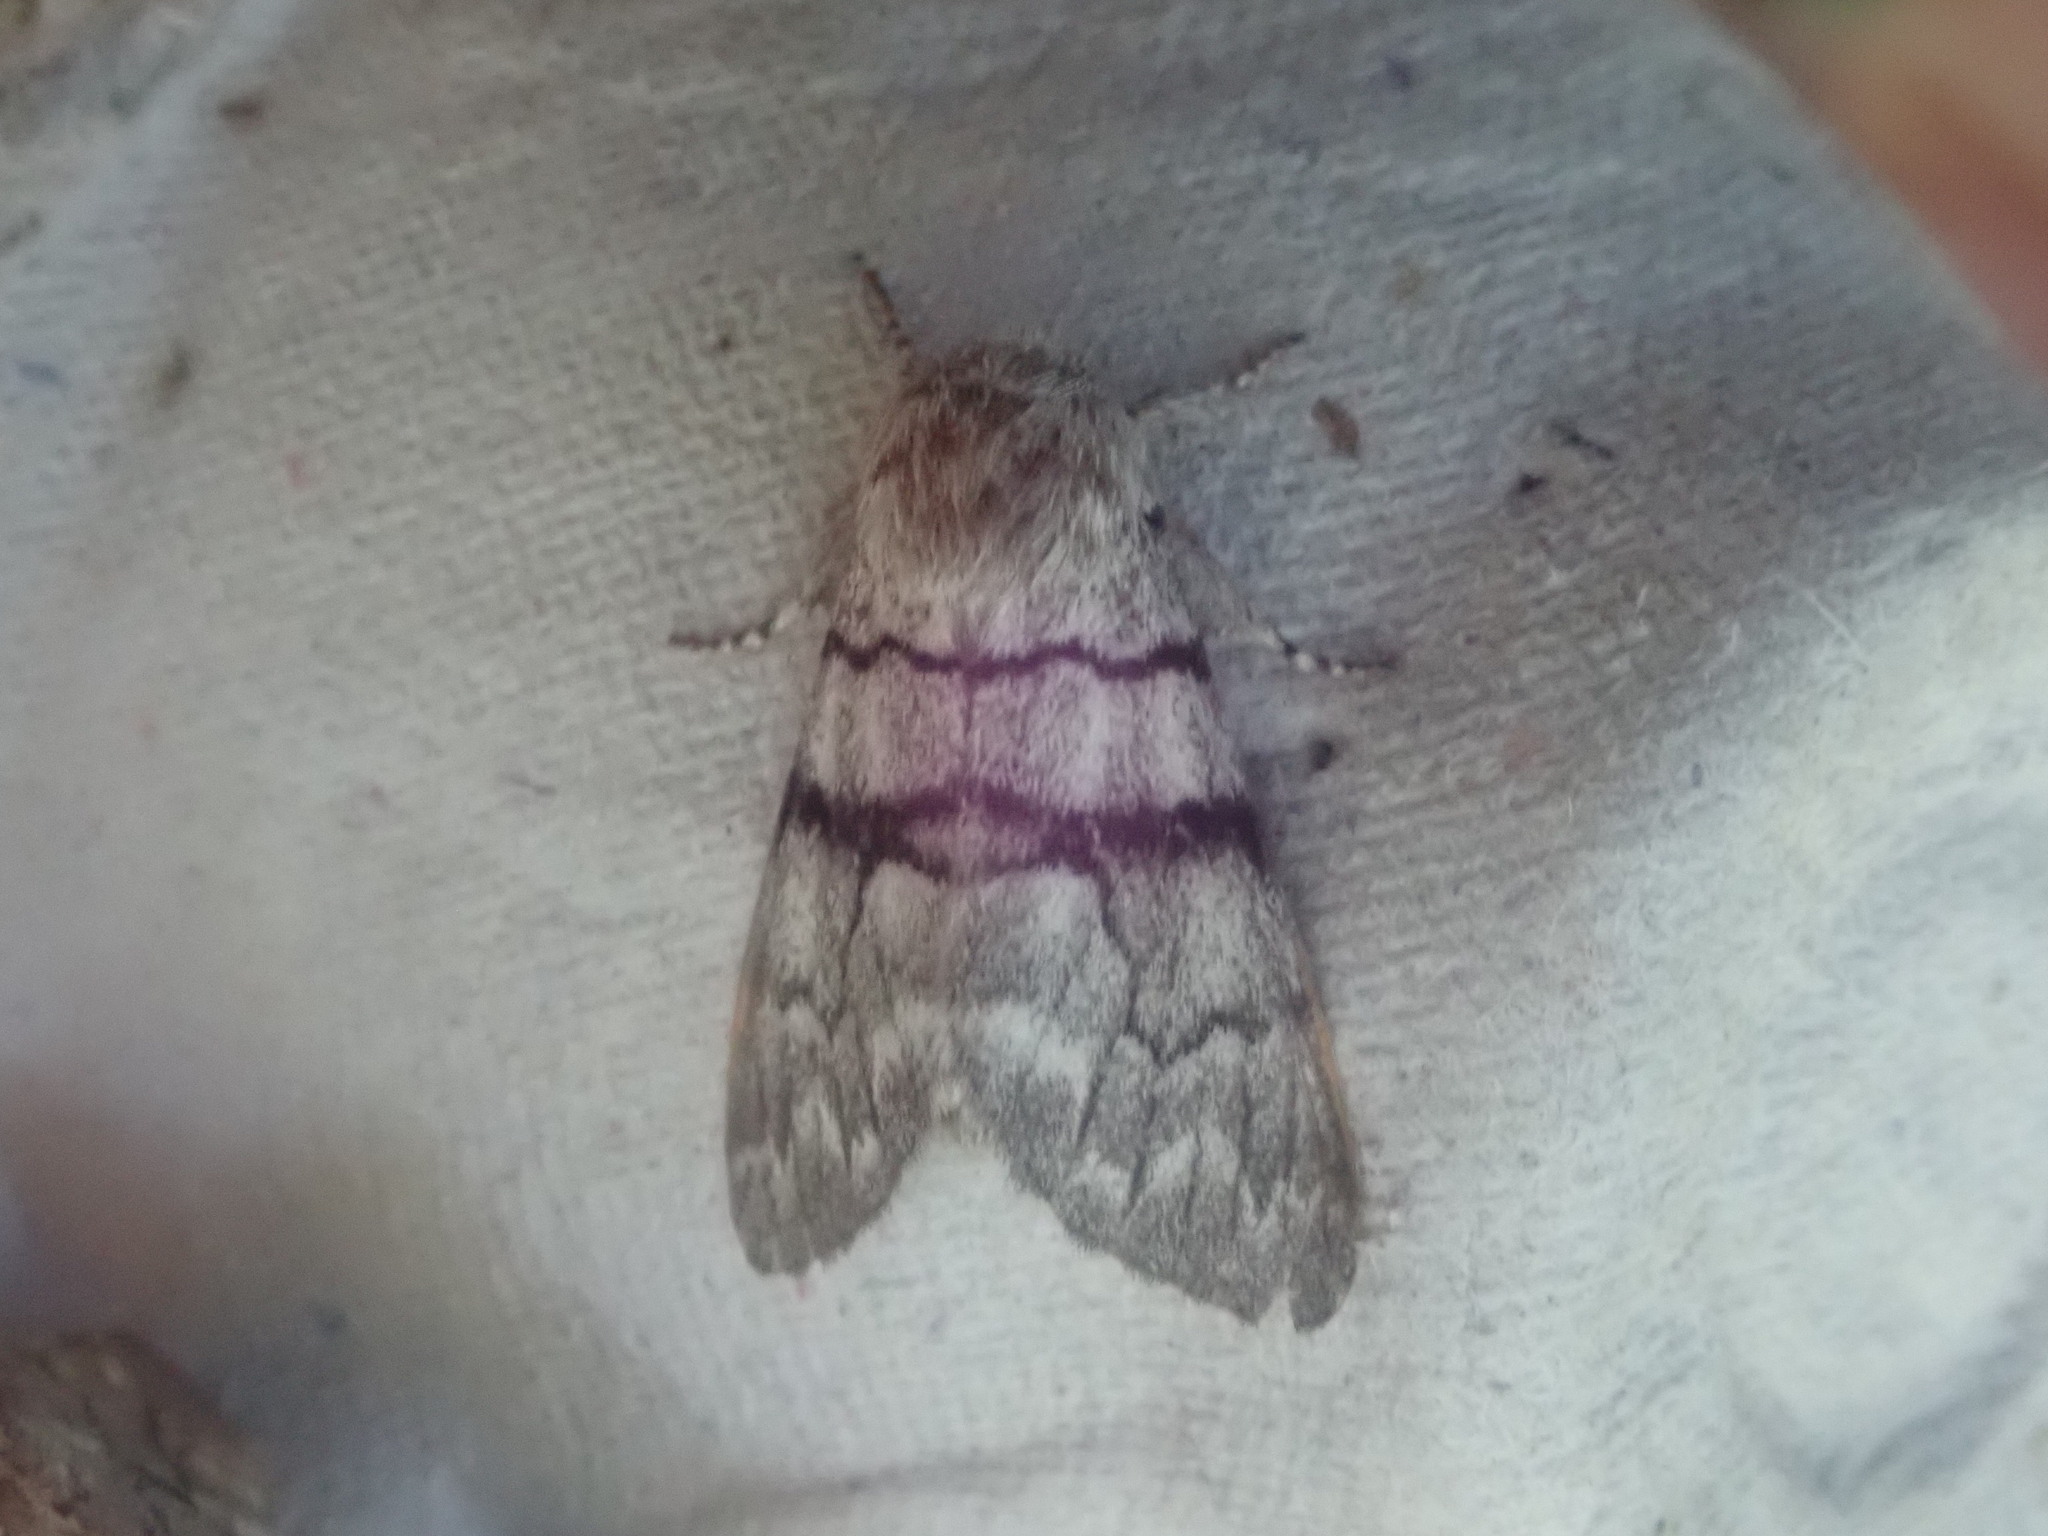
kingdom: Animalia
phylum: Arthropoda
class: Insecta
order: Lepidoptera
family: Noctuidae
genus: Panthea
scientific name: Panthea furcilla
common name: Eastern panthea moth
